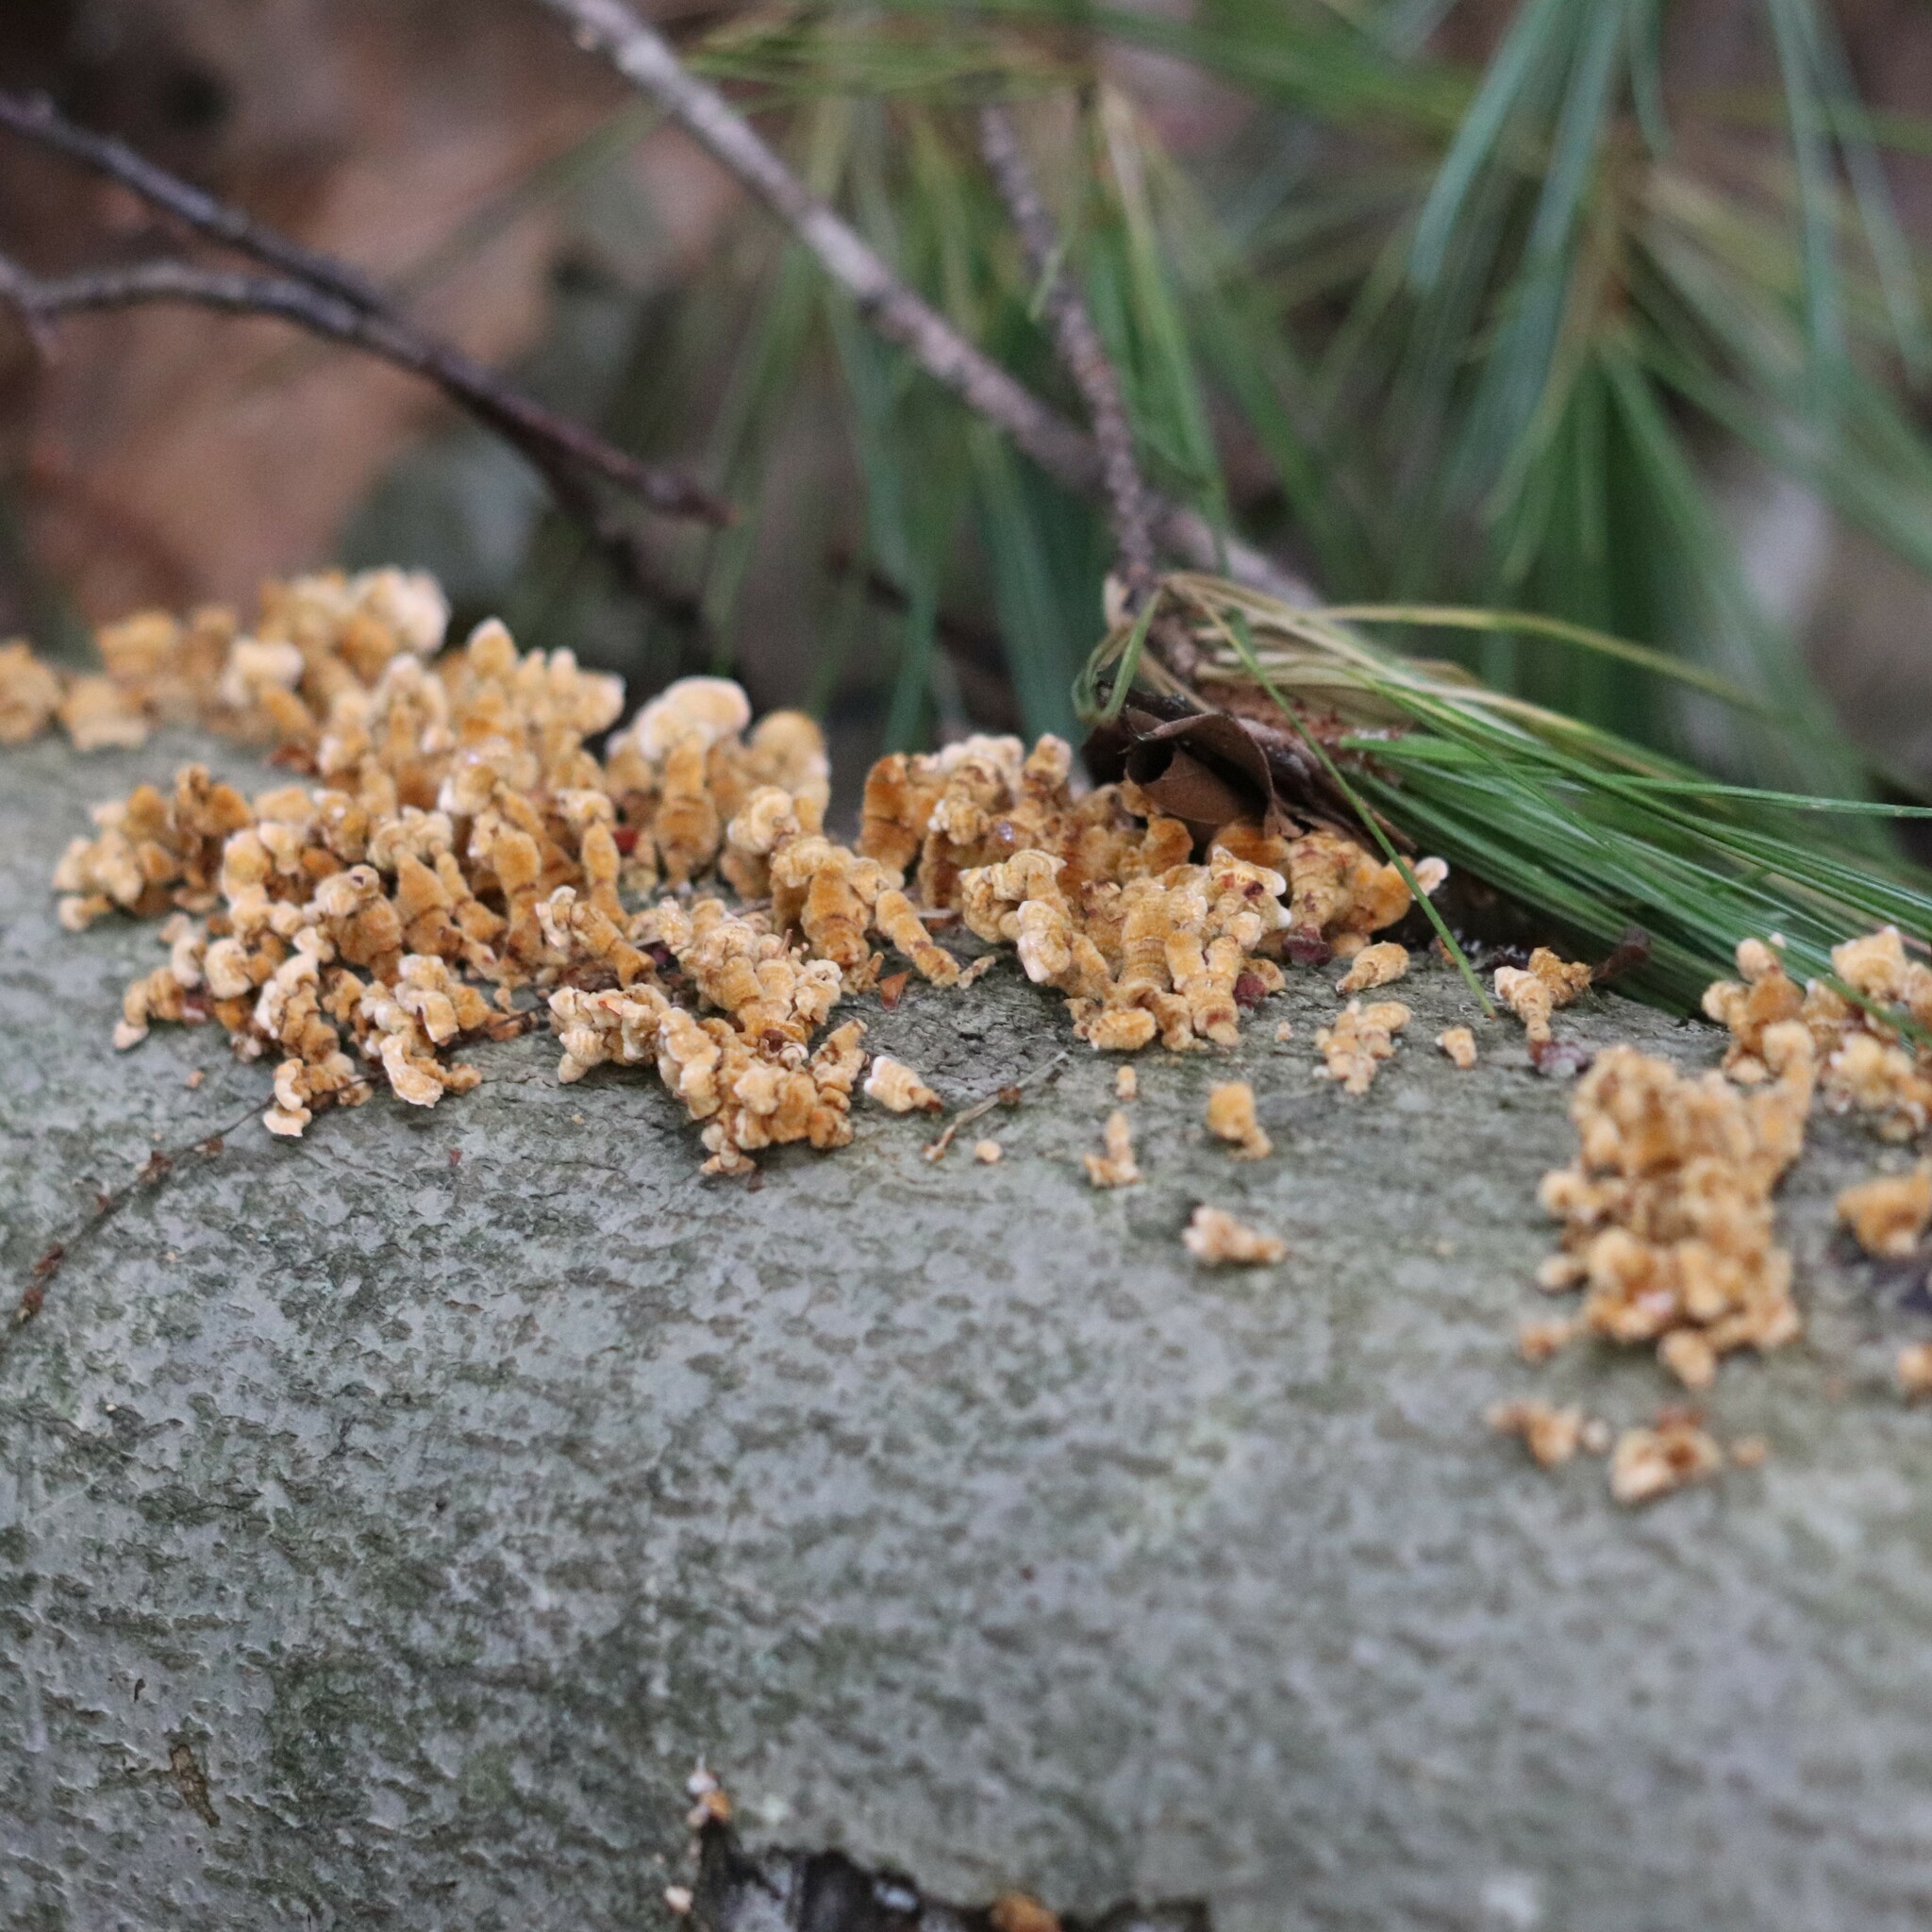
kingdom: Fungi
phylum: Basidiomycota
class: Agaricomycetes
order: Russulales
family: Stereaceae
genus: Stereum
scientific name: Stereum complicatum
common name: Crowded parchment
